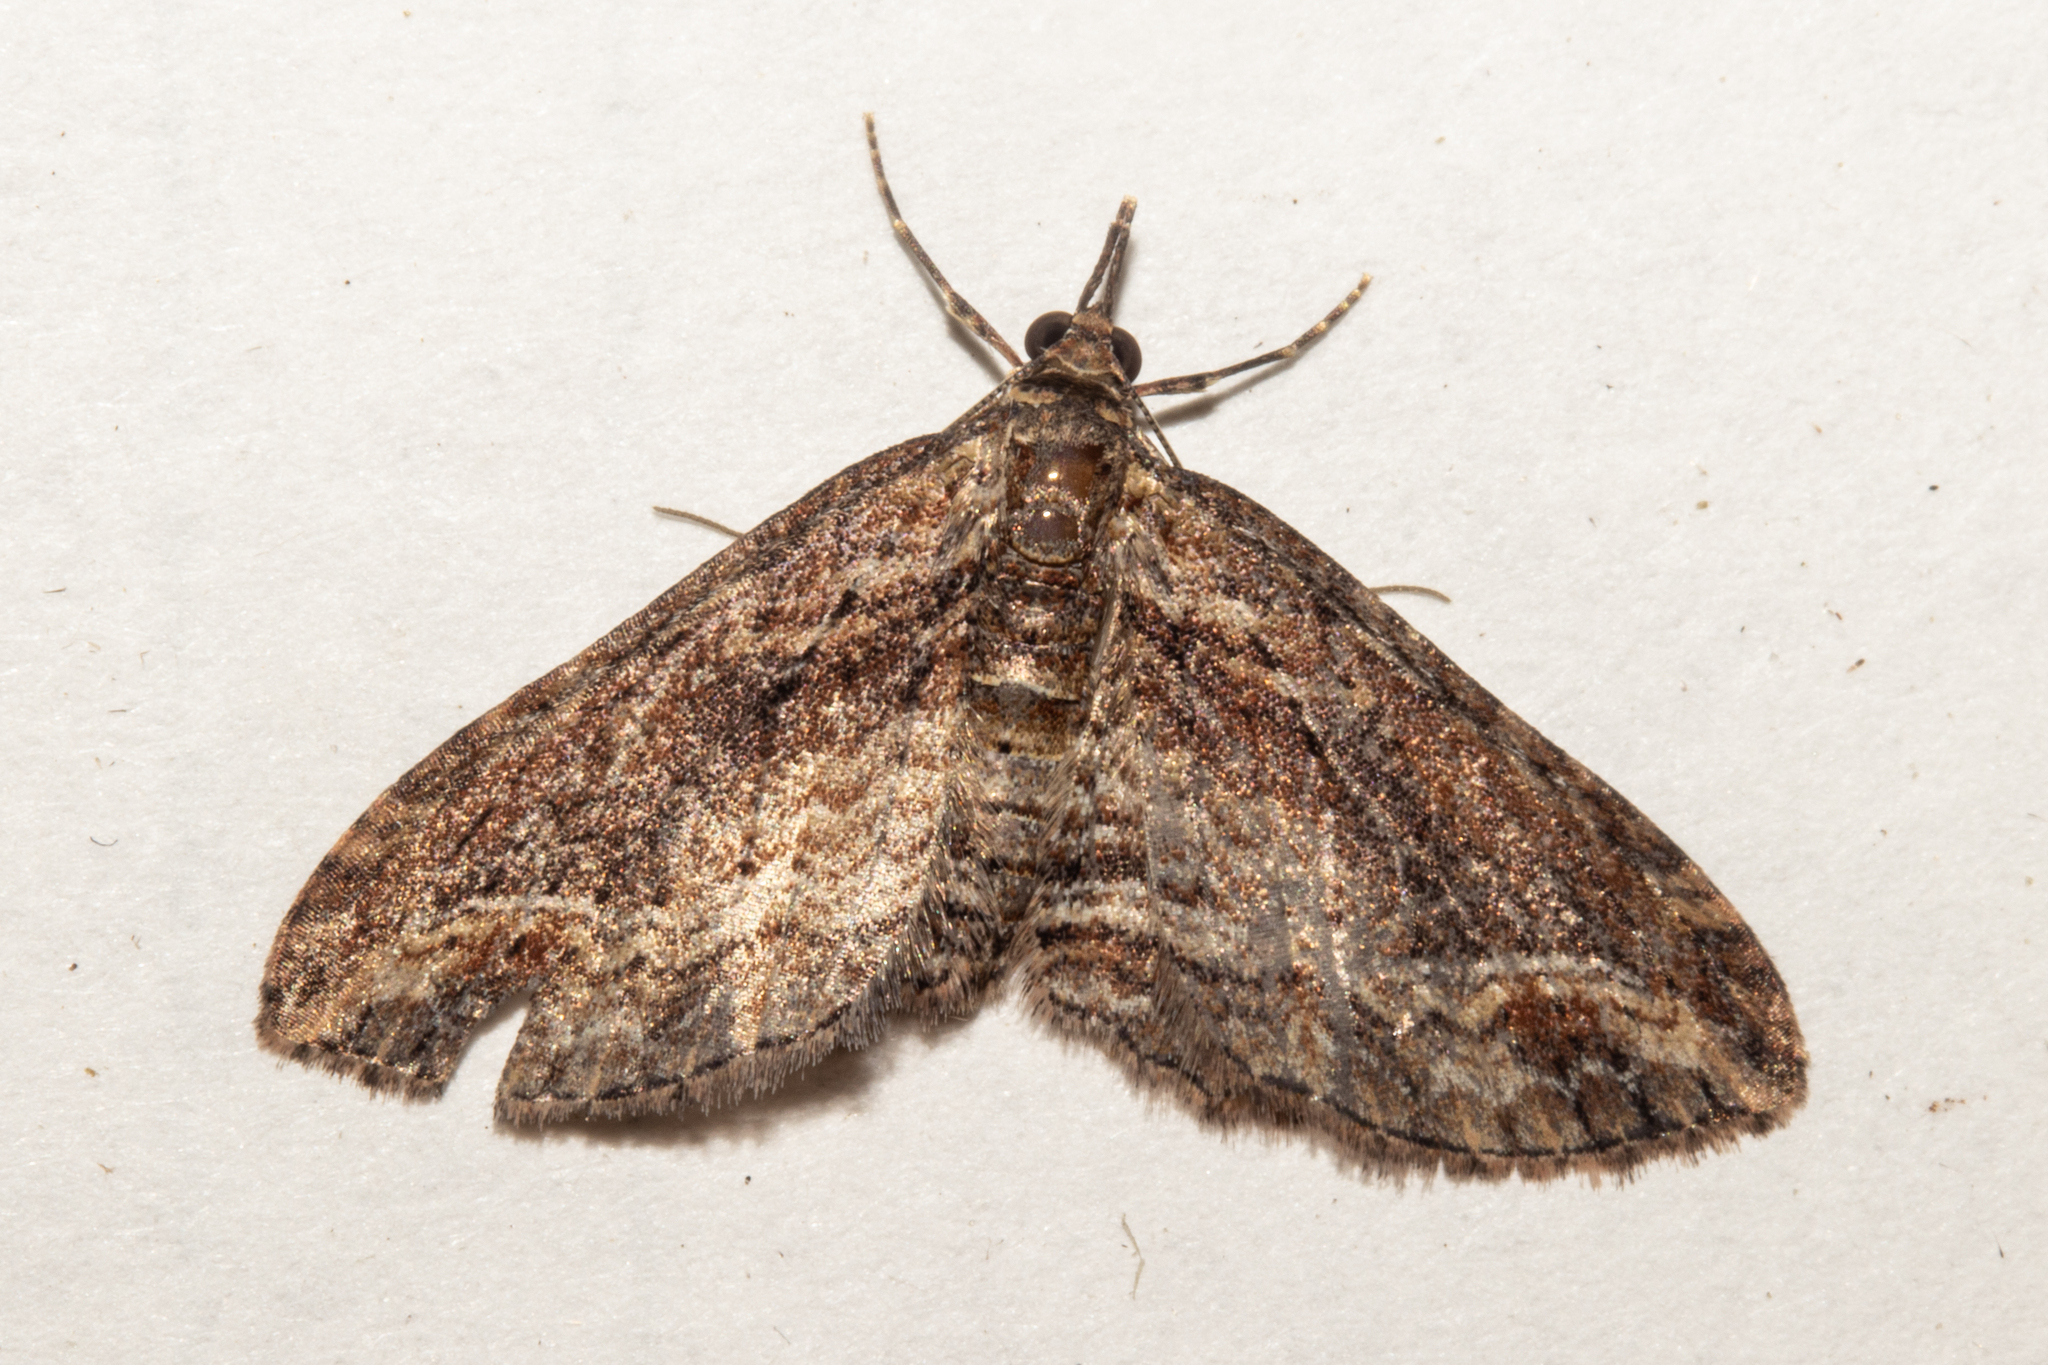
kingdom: Animalia
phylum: Arthropoda
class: Insecta
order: Lepidoptera
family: Geometridae
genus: Chloroclystis
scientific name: Chloroclystis filata
